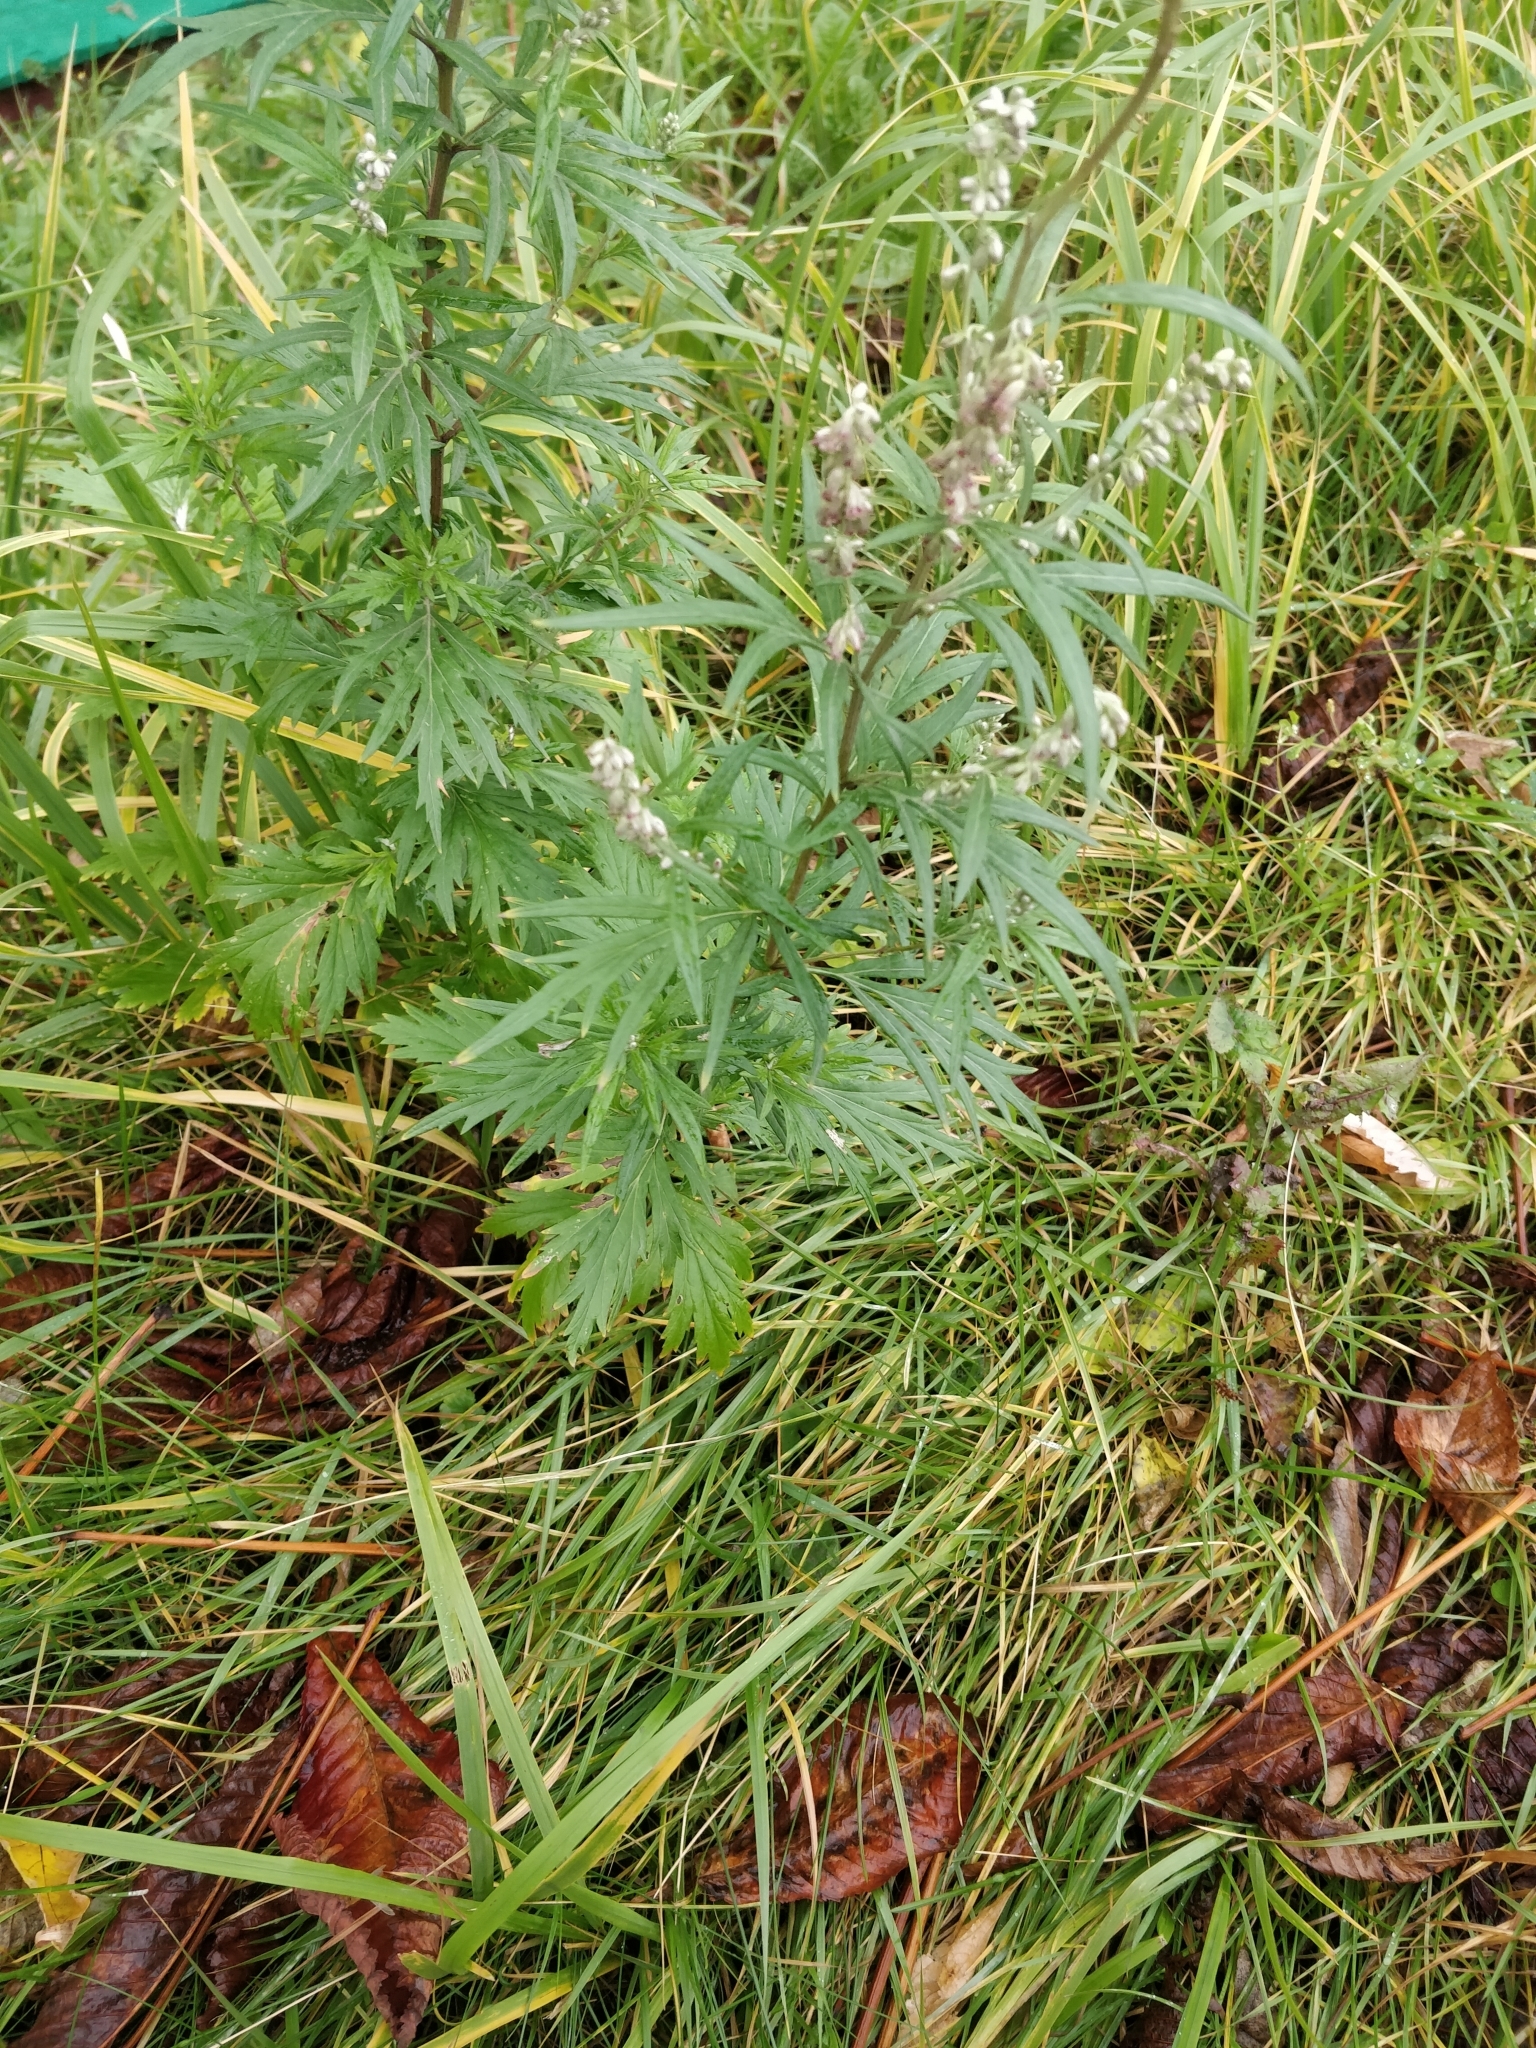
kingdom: Plantae
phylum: Tracheophyta
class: Magnoliopsida
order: Asterales
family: Asteraceae
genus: Artemisia
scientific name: Artemisia vulgaris
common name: Mugwort
